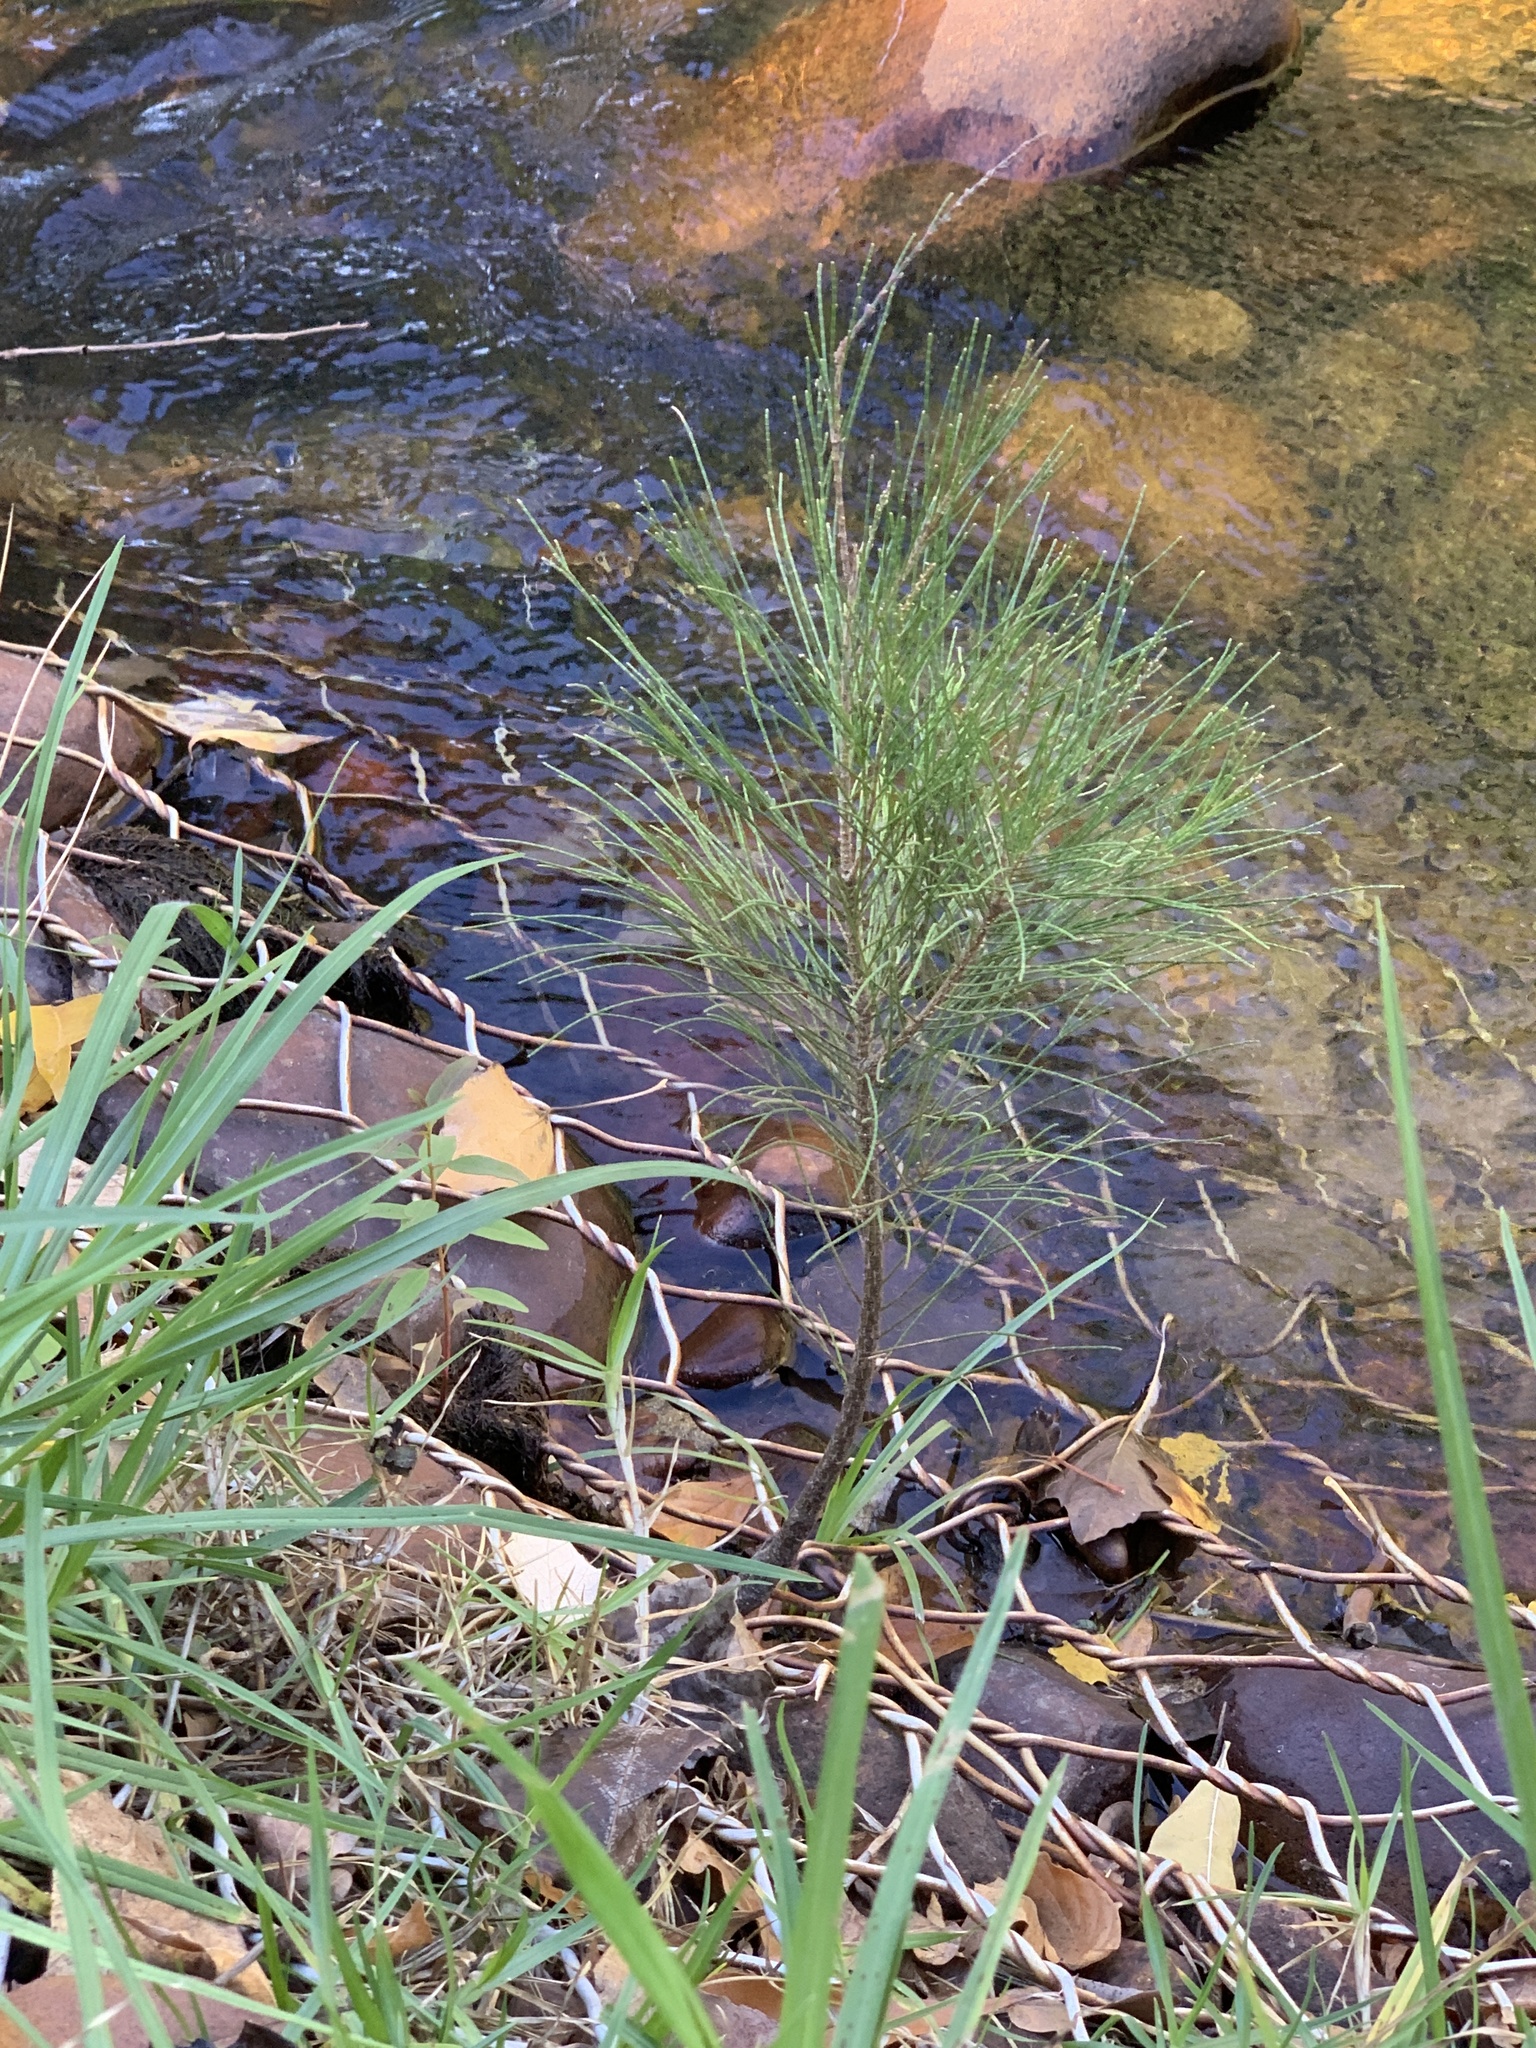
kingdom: Plantae
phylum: Tracheophyta
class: Magnoliopsida
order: Fagales
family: Casuarinaceae
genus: Casuarina
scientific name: Casuarina cunninghamiana
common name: River sheoak
